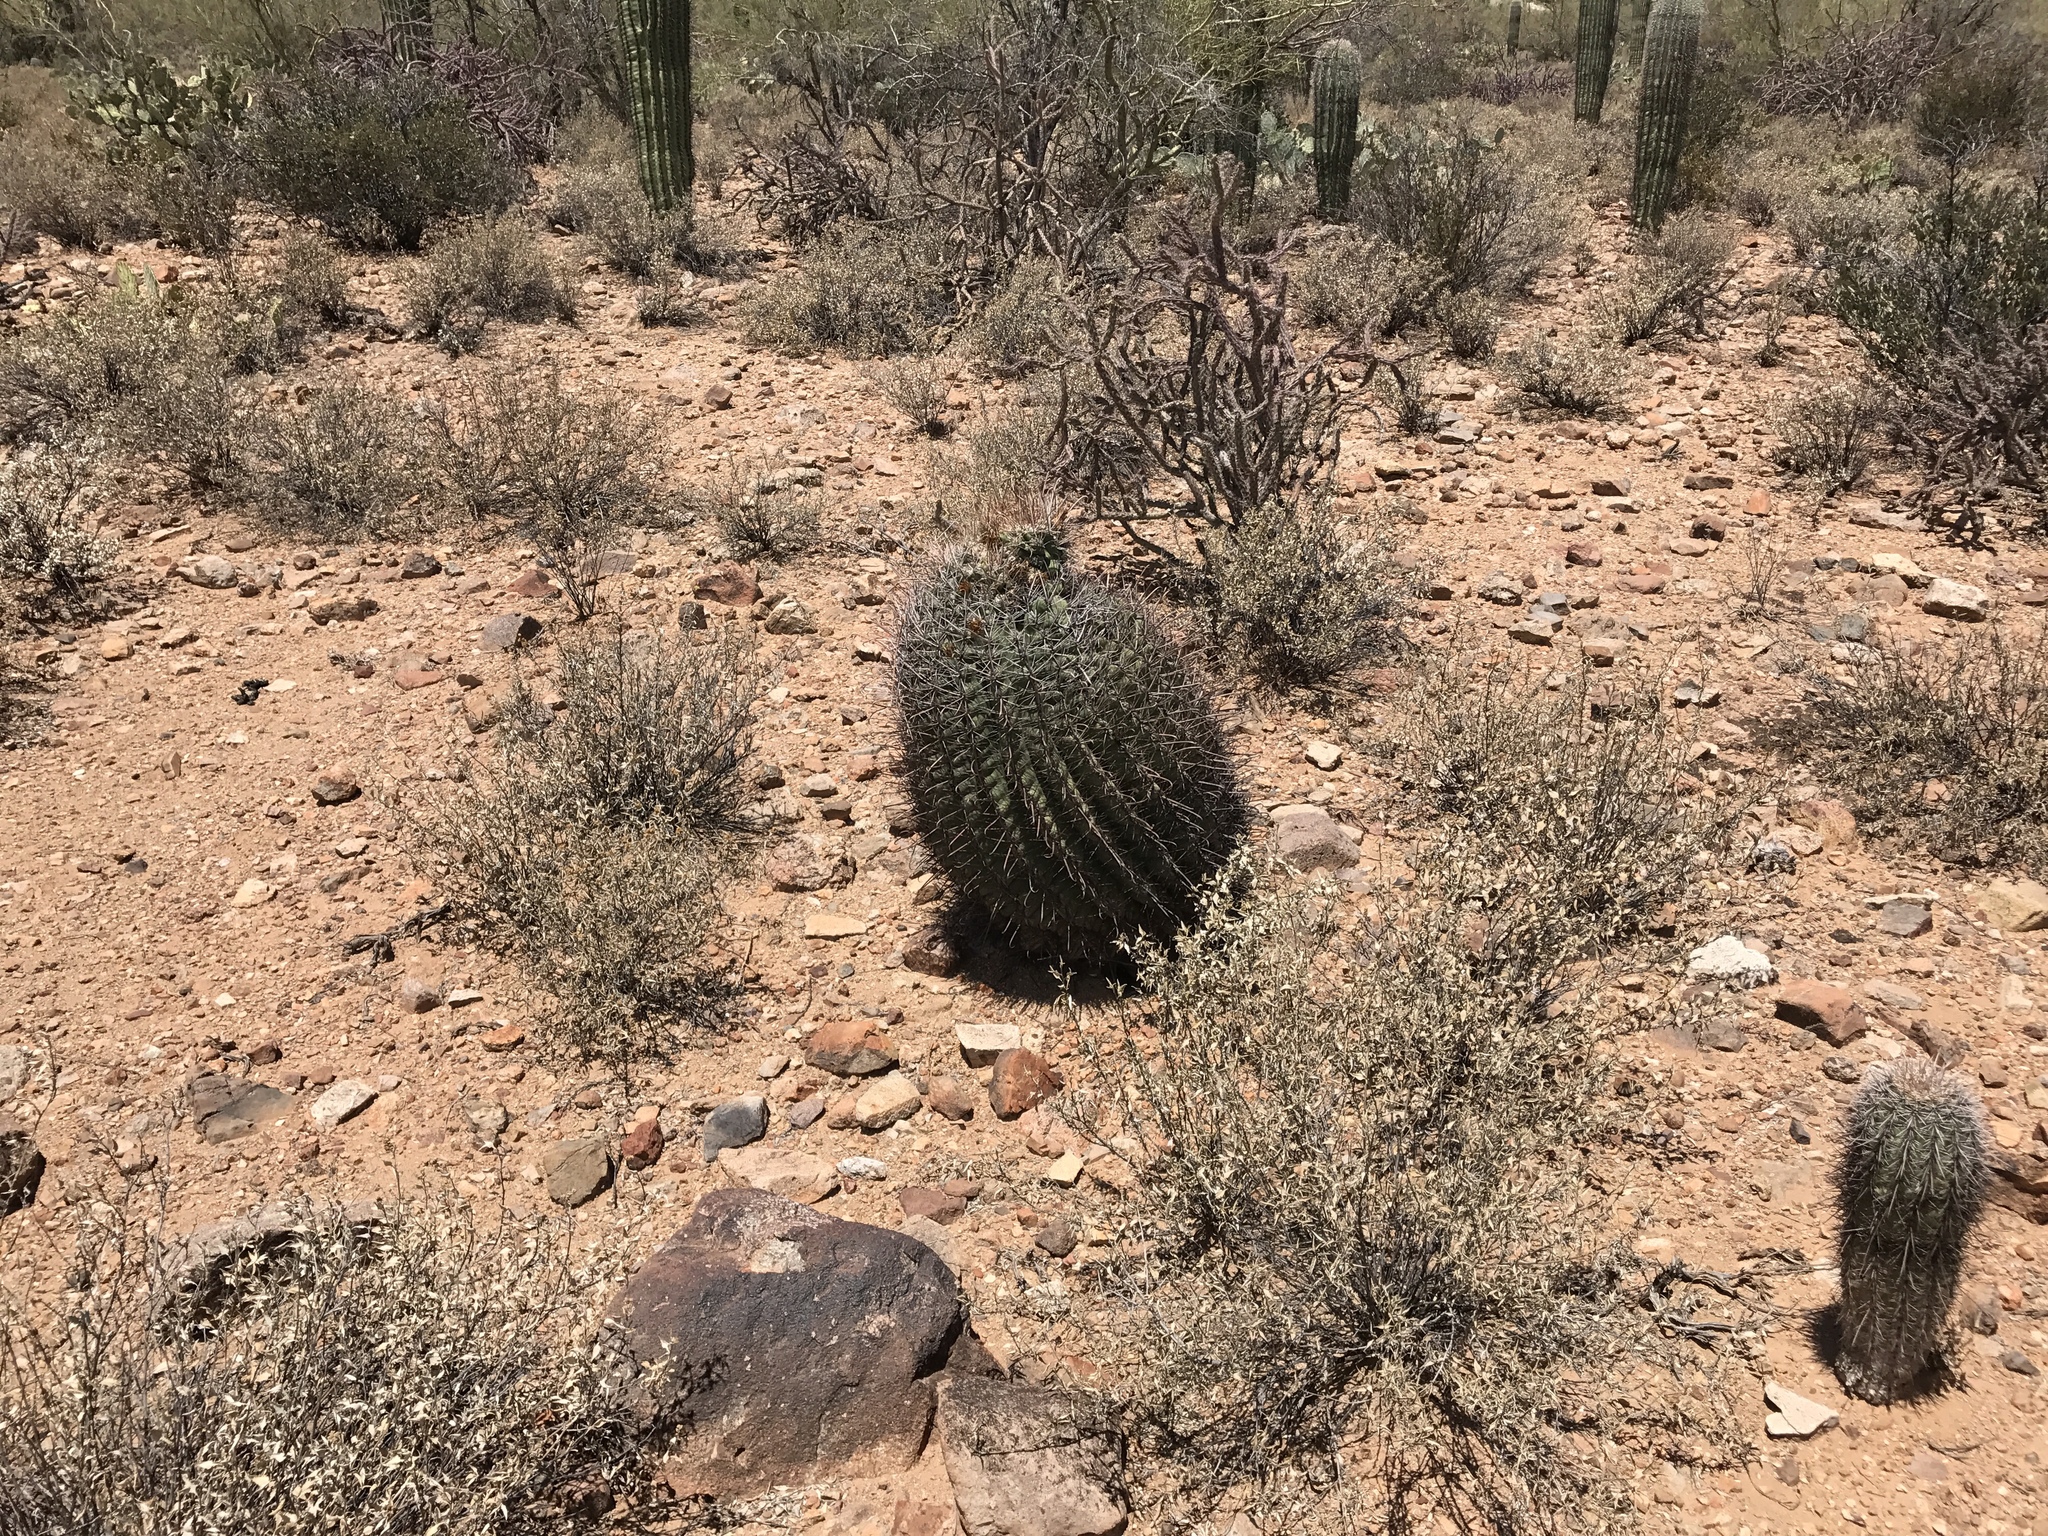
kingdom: Plantae
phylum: Tracheophyta
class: Magnoliopsida
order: Caryophyllales
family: Cactaceae
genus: Ferocactus
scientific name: Ferocactus wislizeni
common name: Candy barrel cactus
